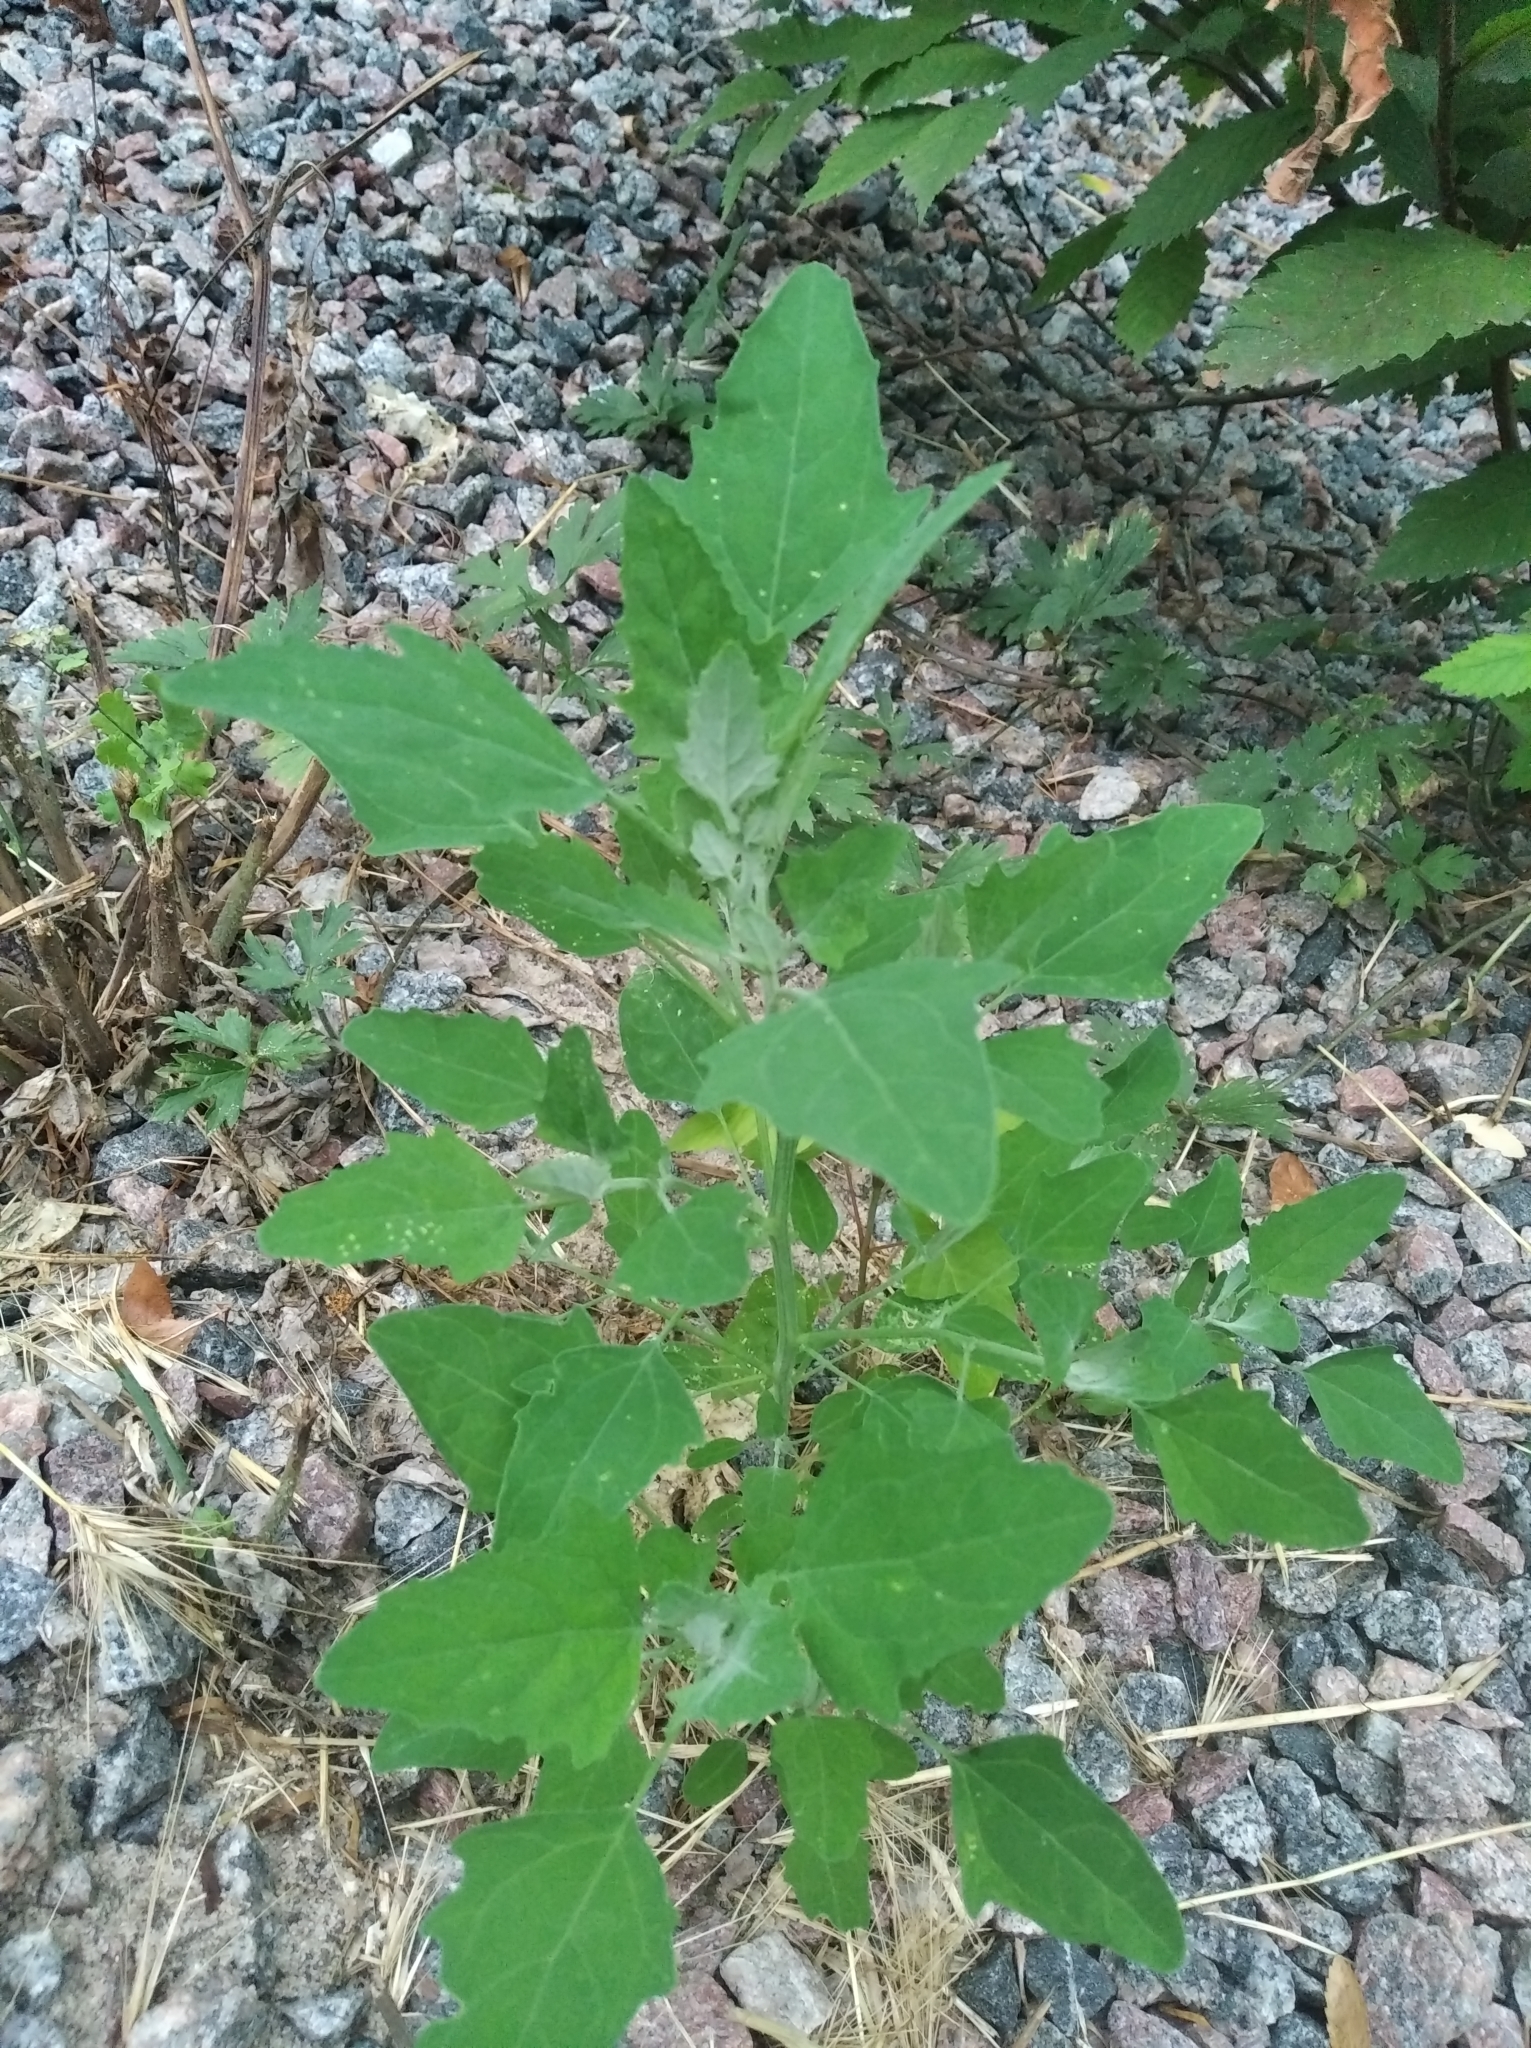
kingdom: Plantae
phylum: Tracheophyta
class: Magnoliopsida
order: Caryophyllales
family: Amaranthaceae
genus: Chenopodium
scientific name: Chenopodium album
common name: Fat-hen
